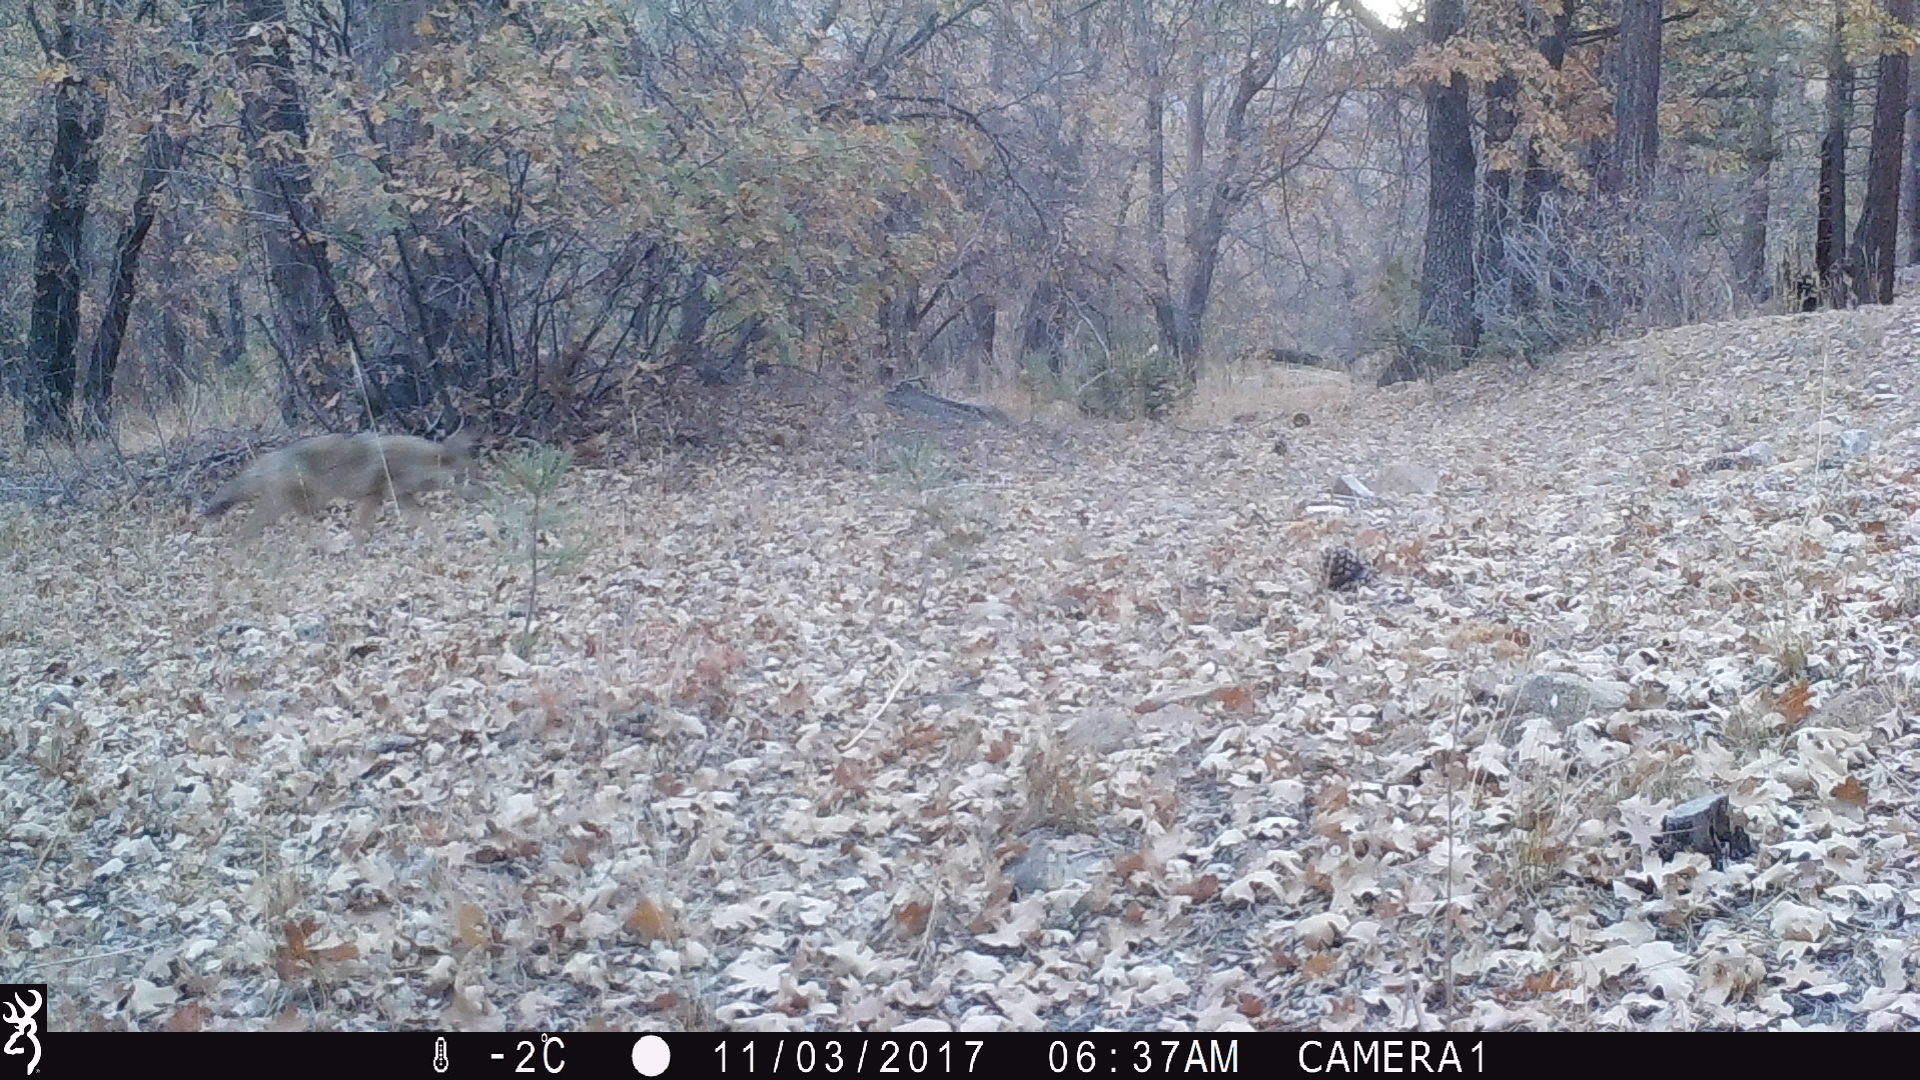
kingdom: Animalia
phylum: Chordata
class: Mammalia
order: Carnivora
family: Canidae
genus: Canis
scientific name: Canis latrans
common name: Coyote
